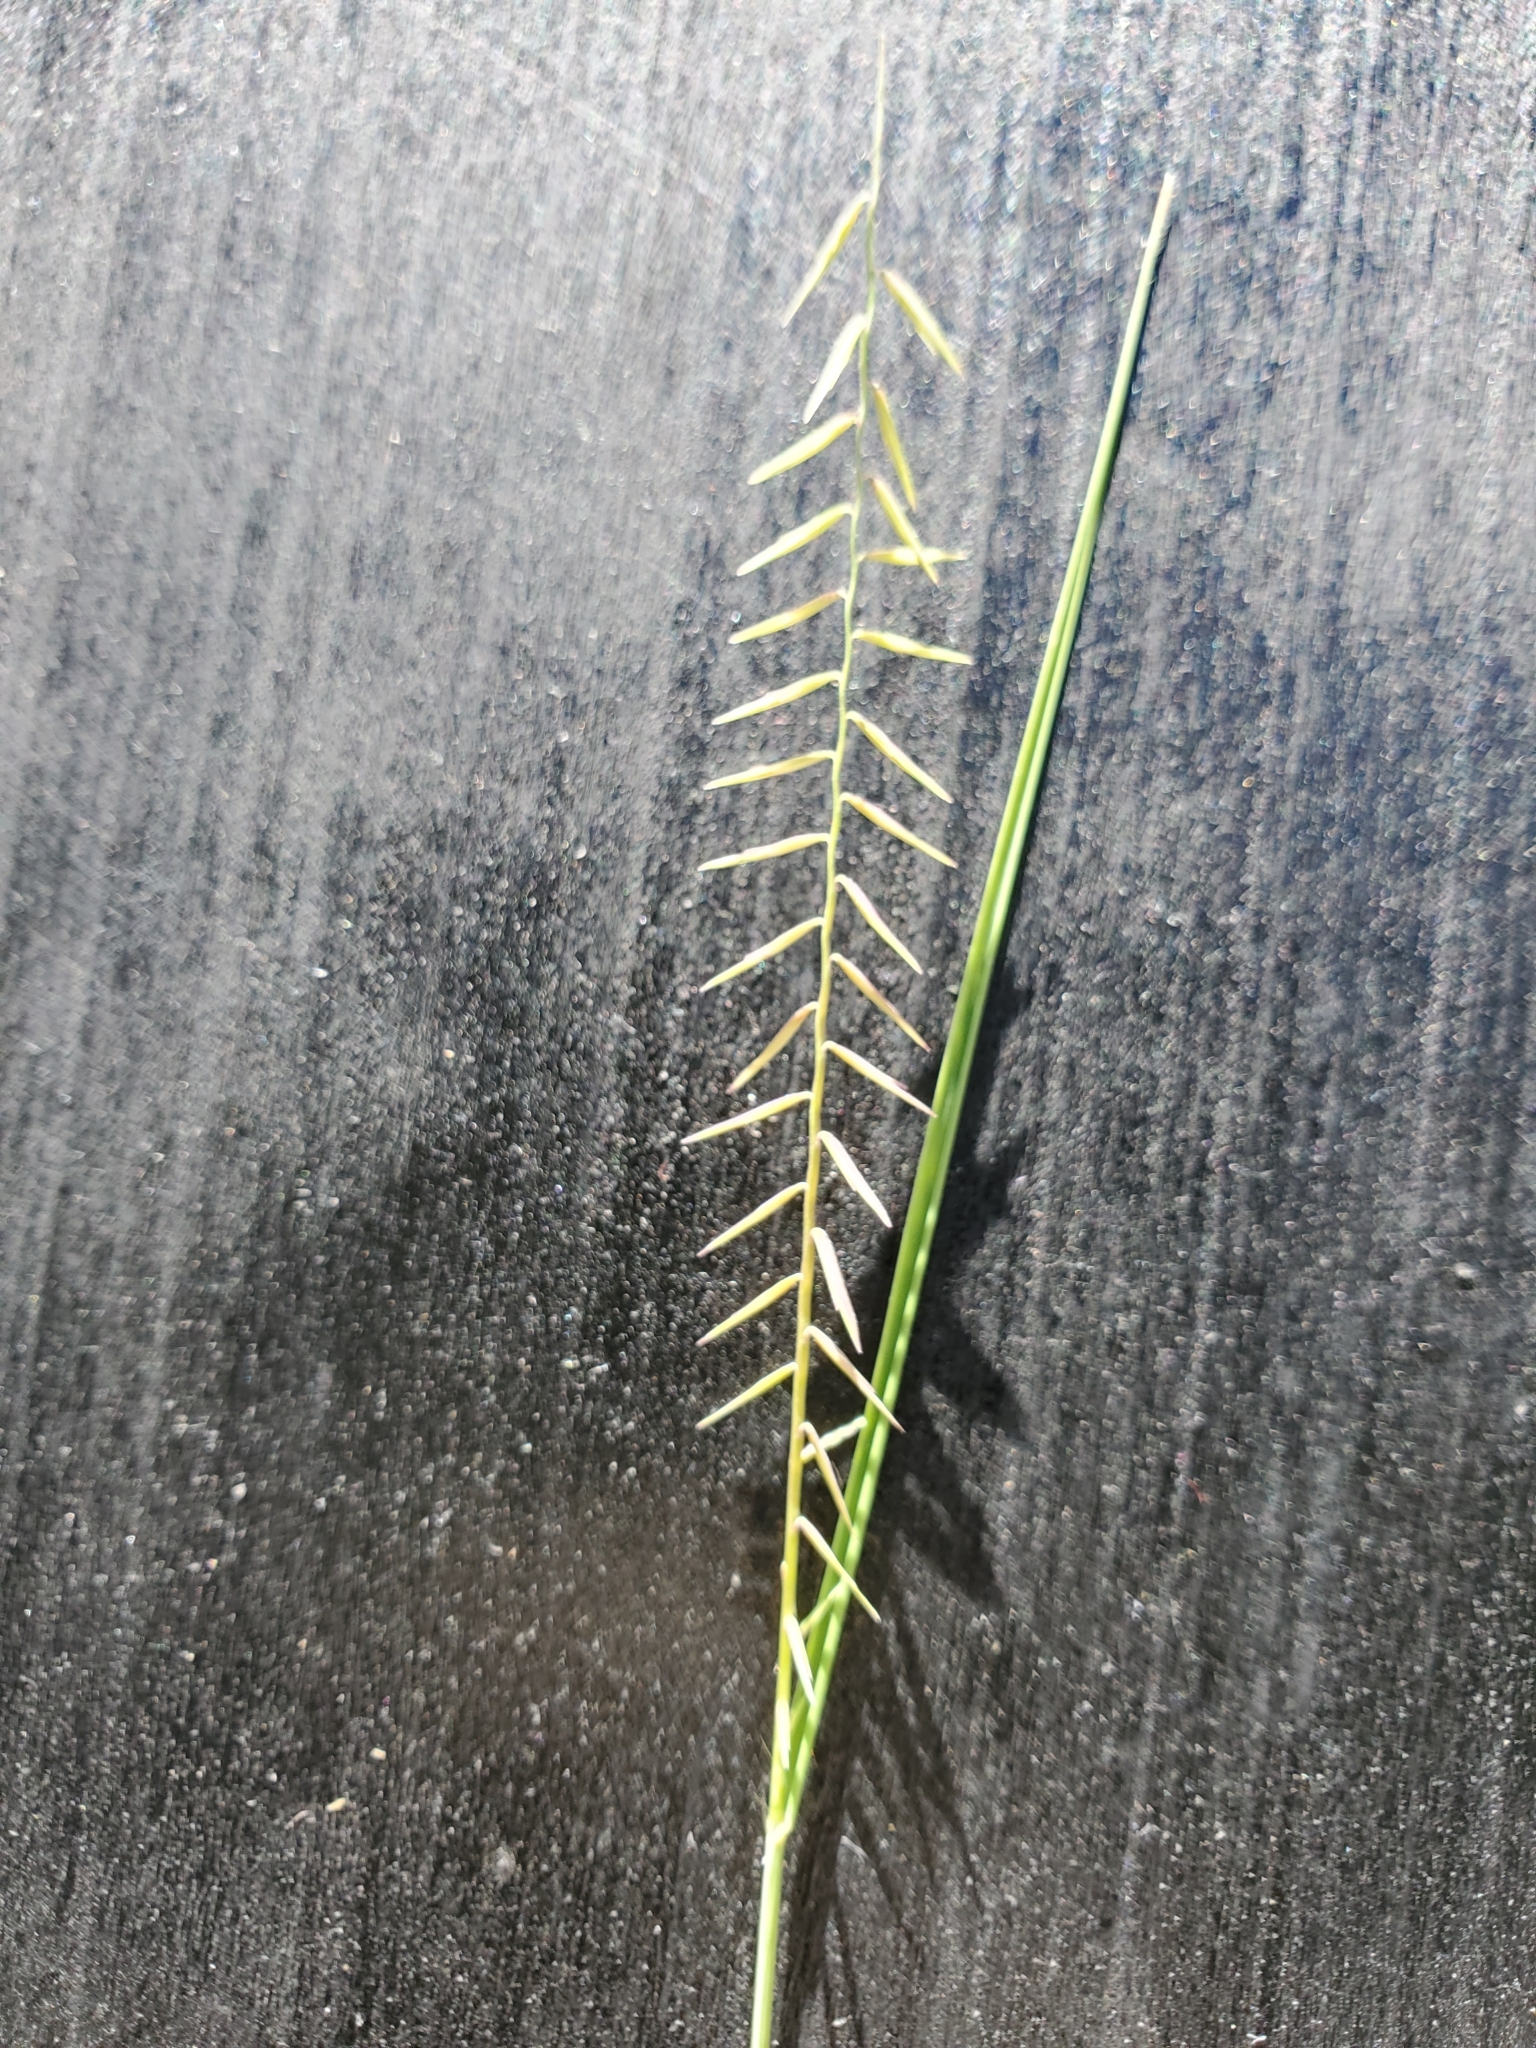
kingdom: Plantae
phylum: Tracheophyta
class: Liliopsida
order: Poales
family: Poaceae
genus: Bouteloua
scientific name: Bouteloua uniflora
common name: Neally's grama
